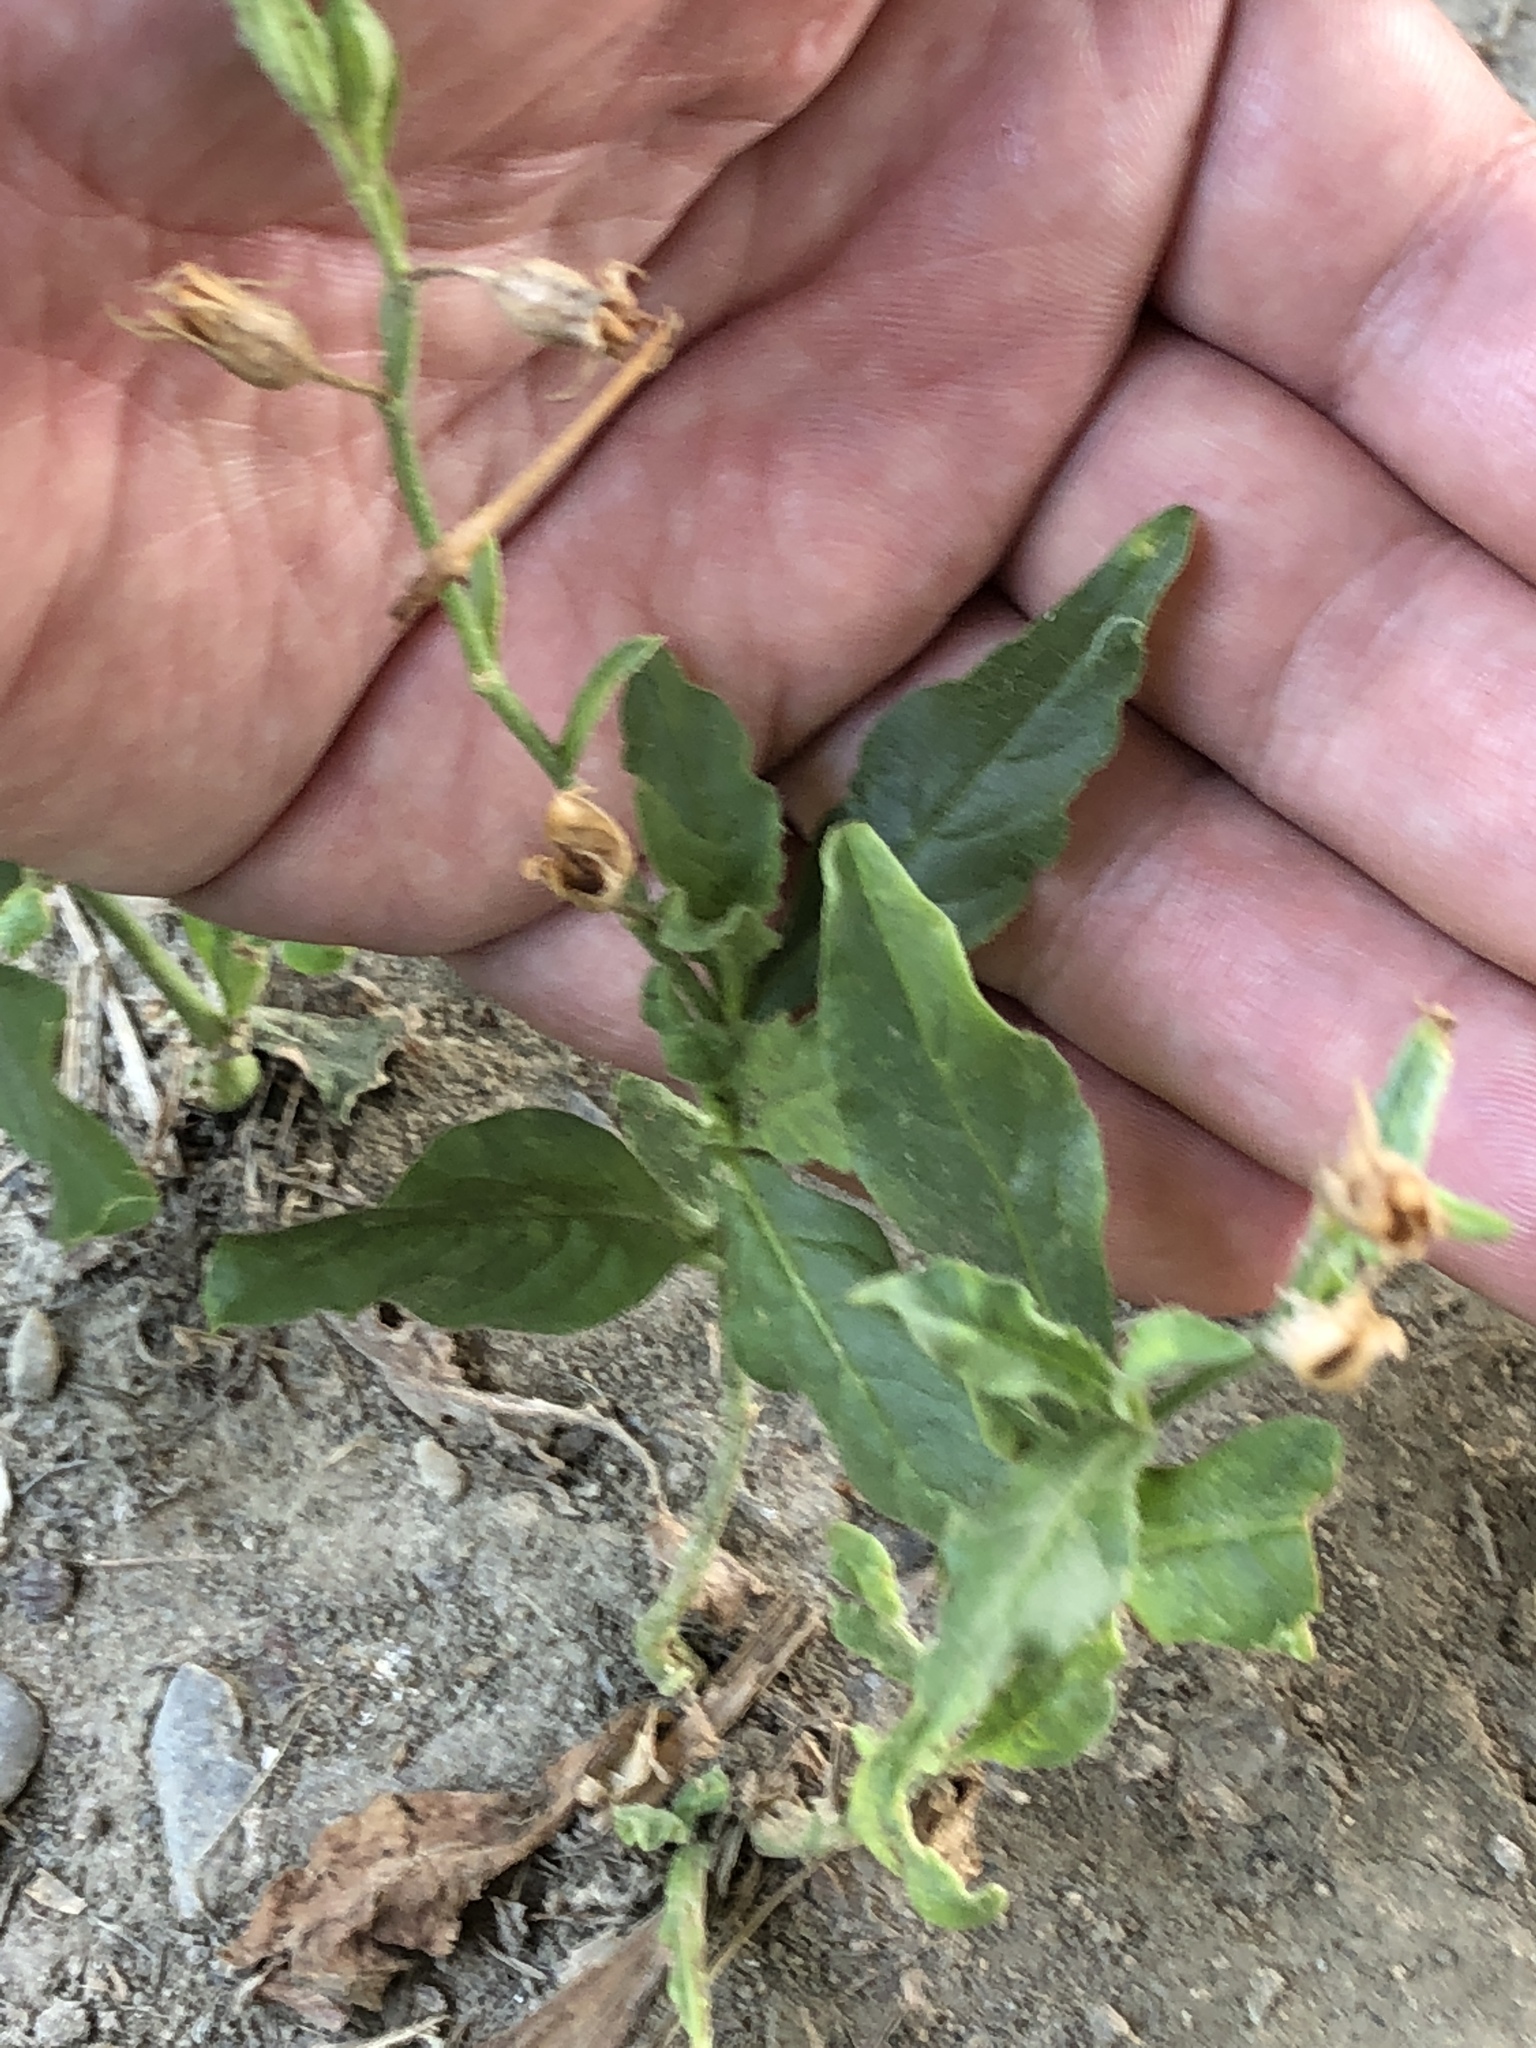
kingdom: Plantae
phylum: Tracheophyta
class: Magnoliopsida
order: Solanales
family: Solanaceae
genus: Nicotiana
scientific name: Nicotiana plumbaginifolia
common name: Tex-mex tobacco
